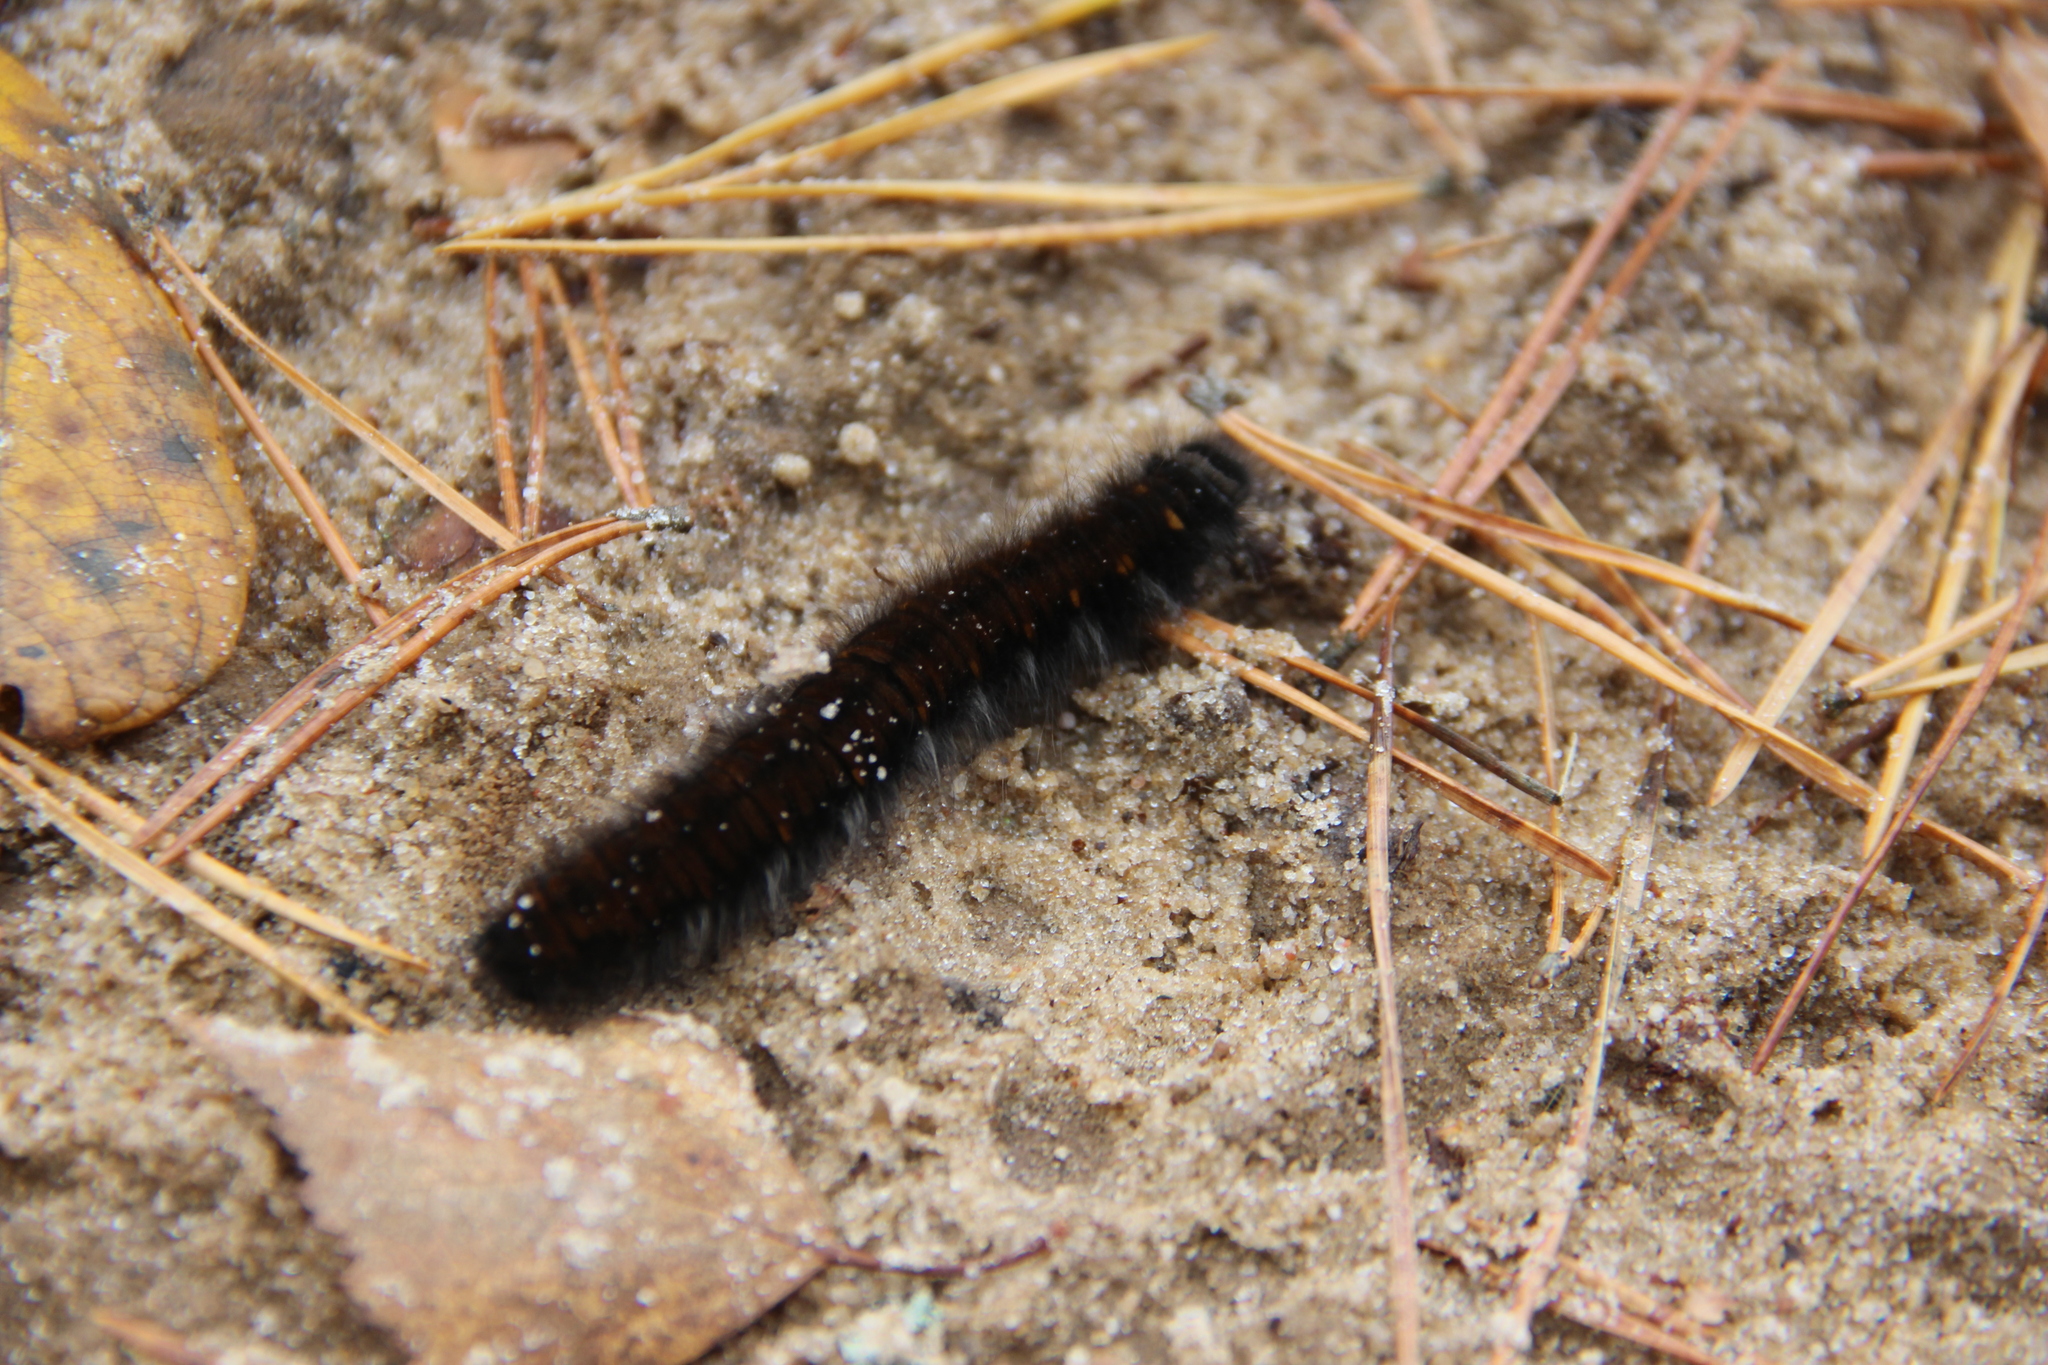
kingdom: Animalia
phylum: Arthropoda
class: Insecta
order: Lepidoptera
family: Lasiocampidae
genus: Macrothylacia
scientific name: Macrothylacia rubi
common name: Fox moth
